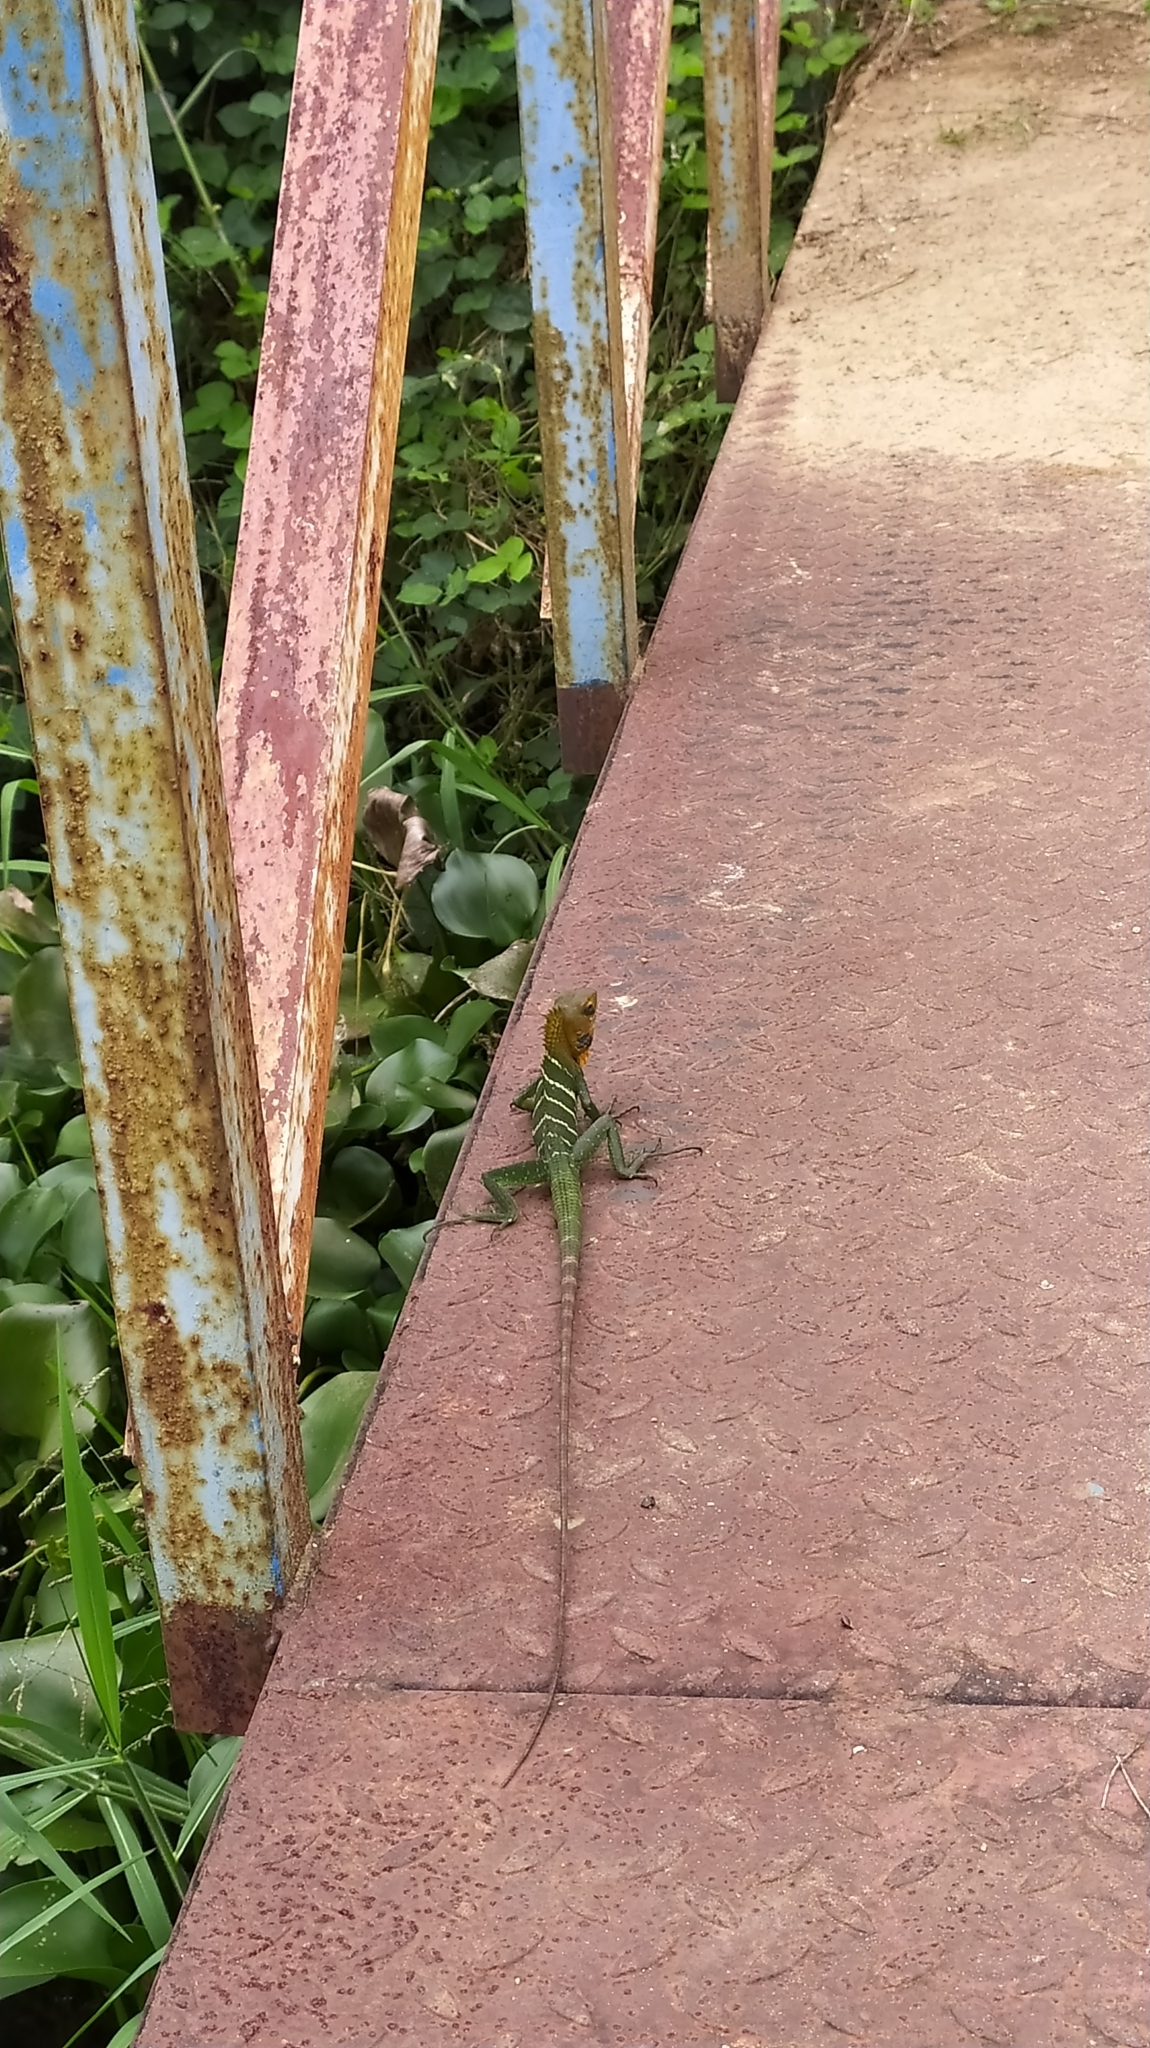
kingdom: Animalia
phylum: Chordata
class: Squamata
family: Agamidae
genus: Calotes
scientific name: Calotes calotes
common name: Common green forest lizard
